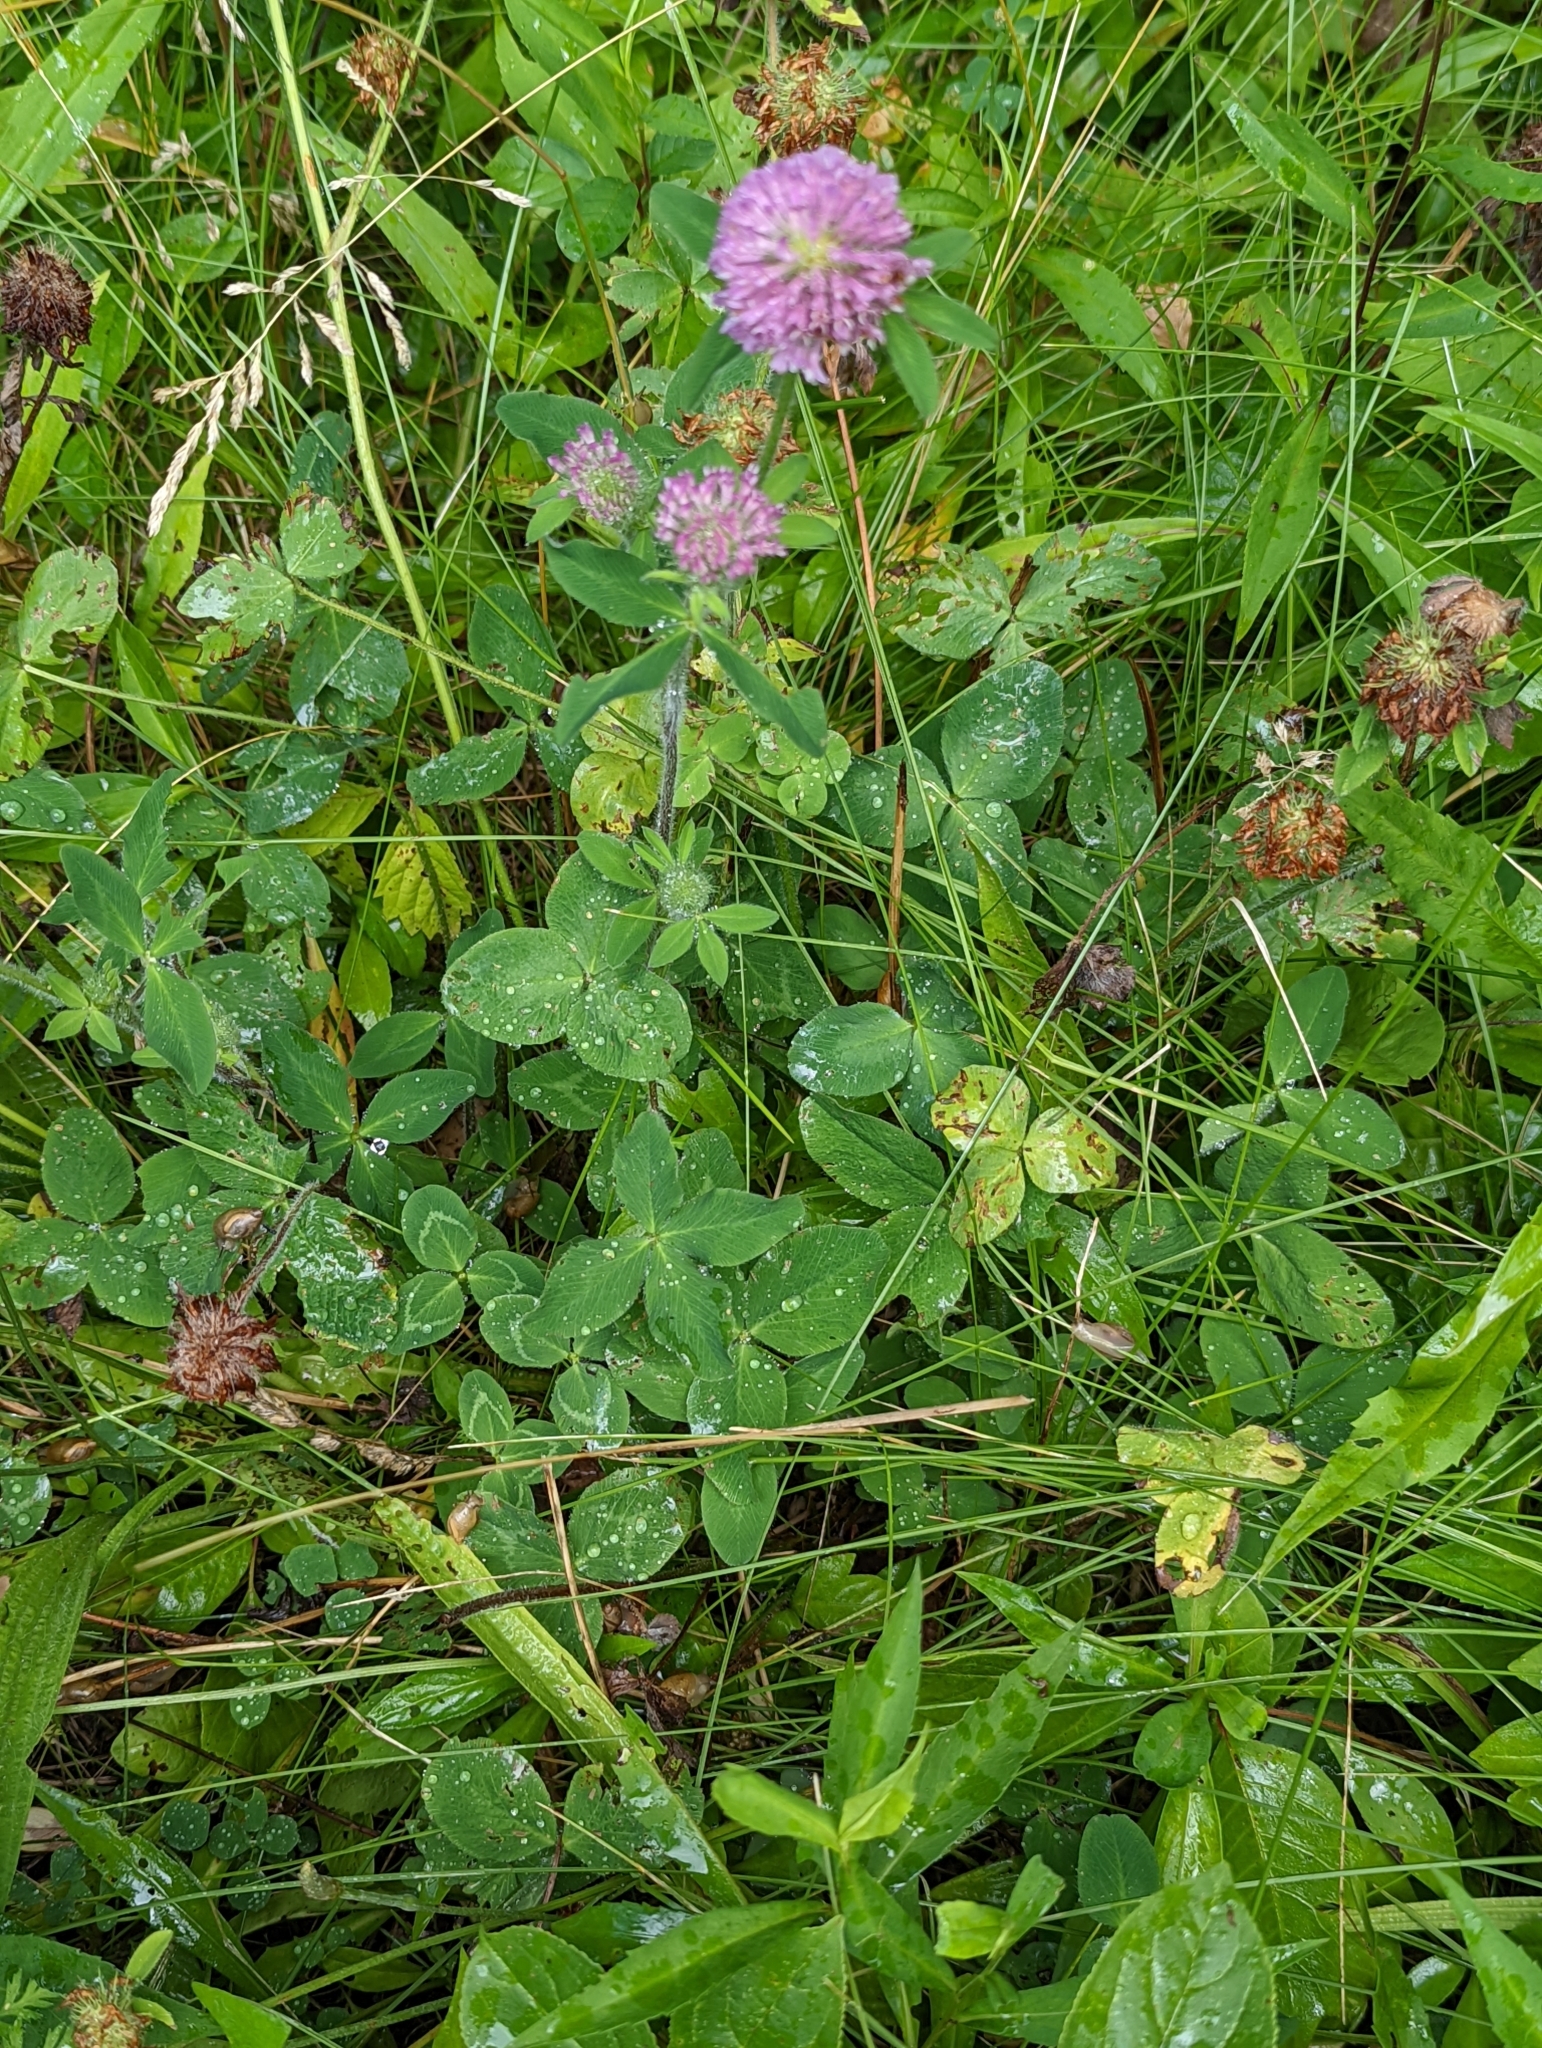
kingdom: Plantae
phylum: Tracheophyta
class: Magnoliopsida
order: Fabales
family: Fabaceae
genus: Trifolium
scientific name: Trifolium pratense
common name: Red clover
